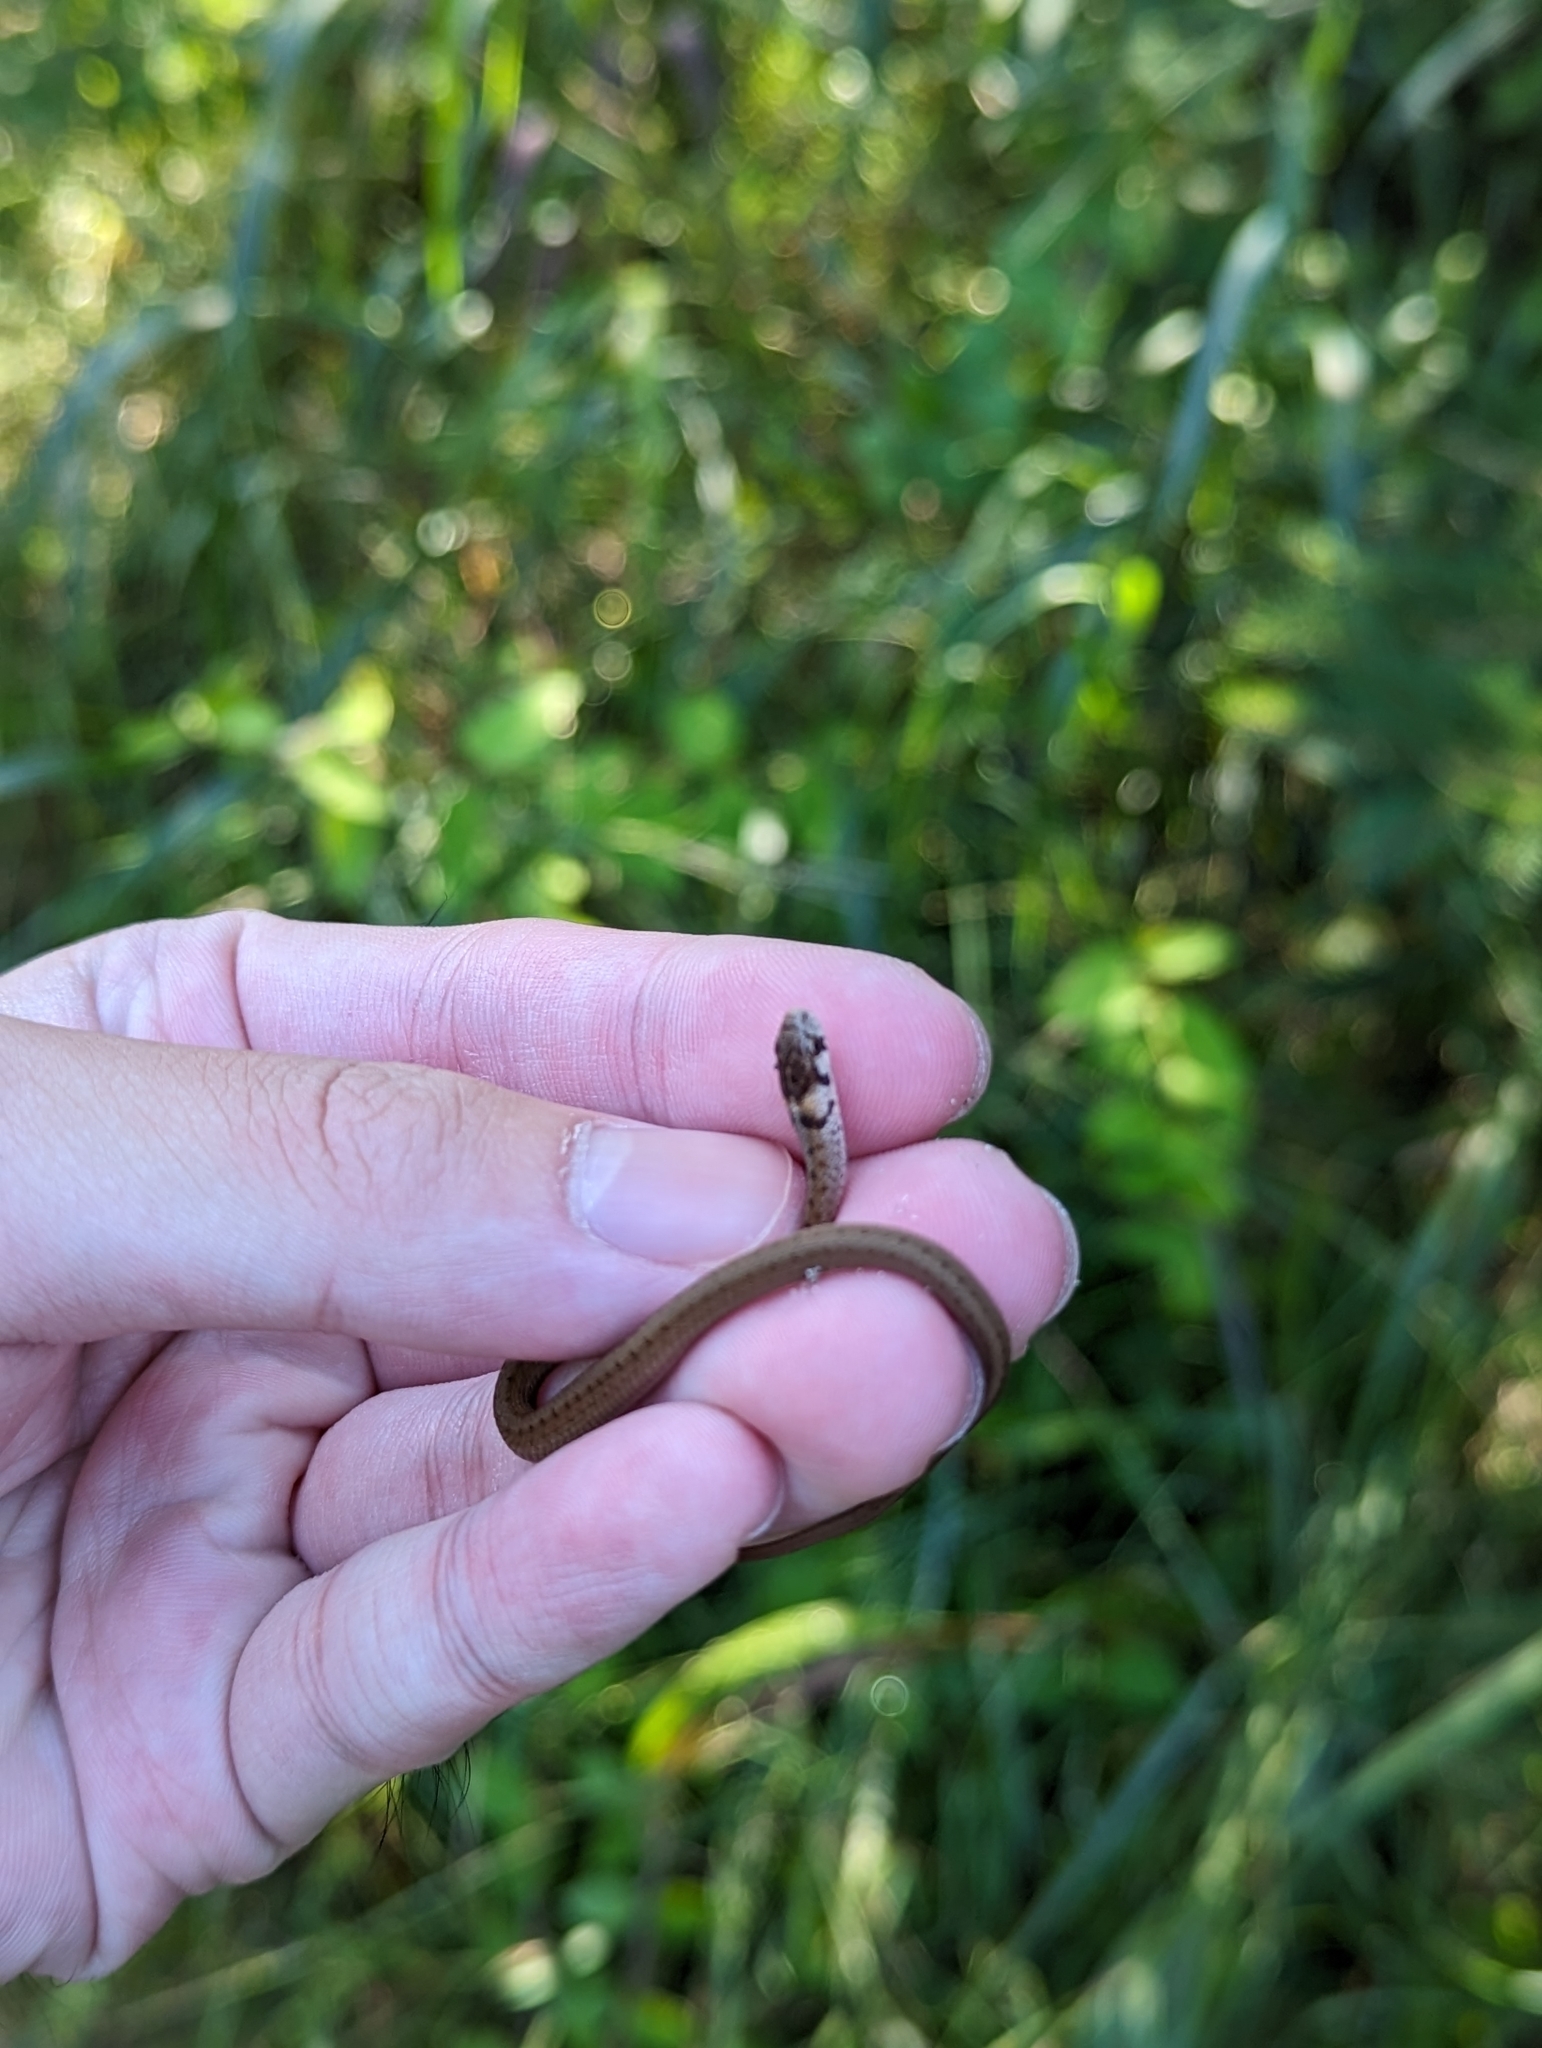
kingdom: Animalia
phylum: Chordata
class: Squamata
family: Colubridae
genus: Storeria
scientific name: Storeria dekayi
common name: (dekay’s) brown snake
